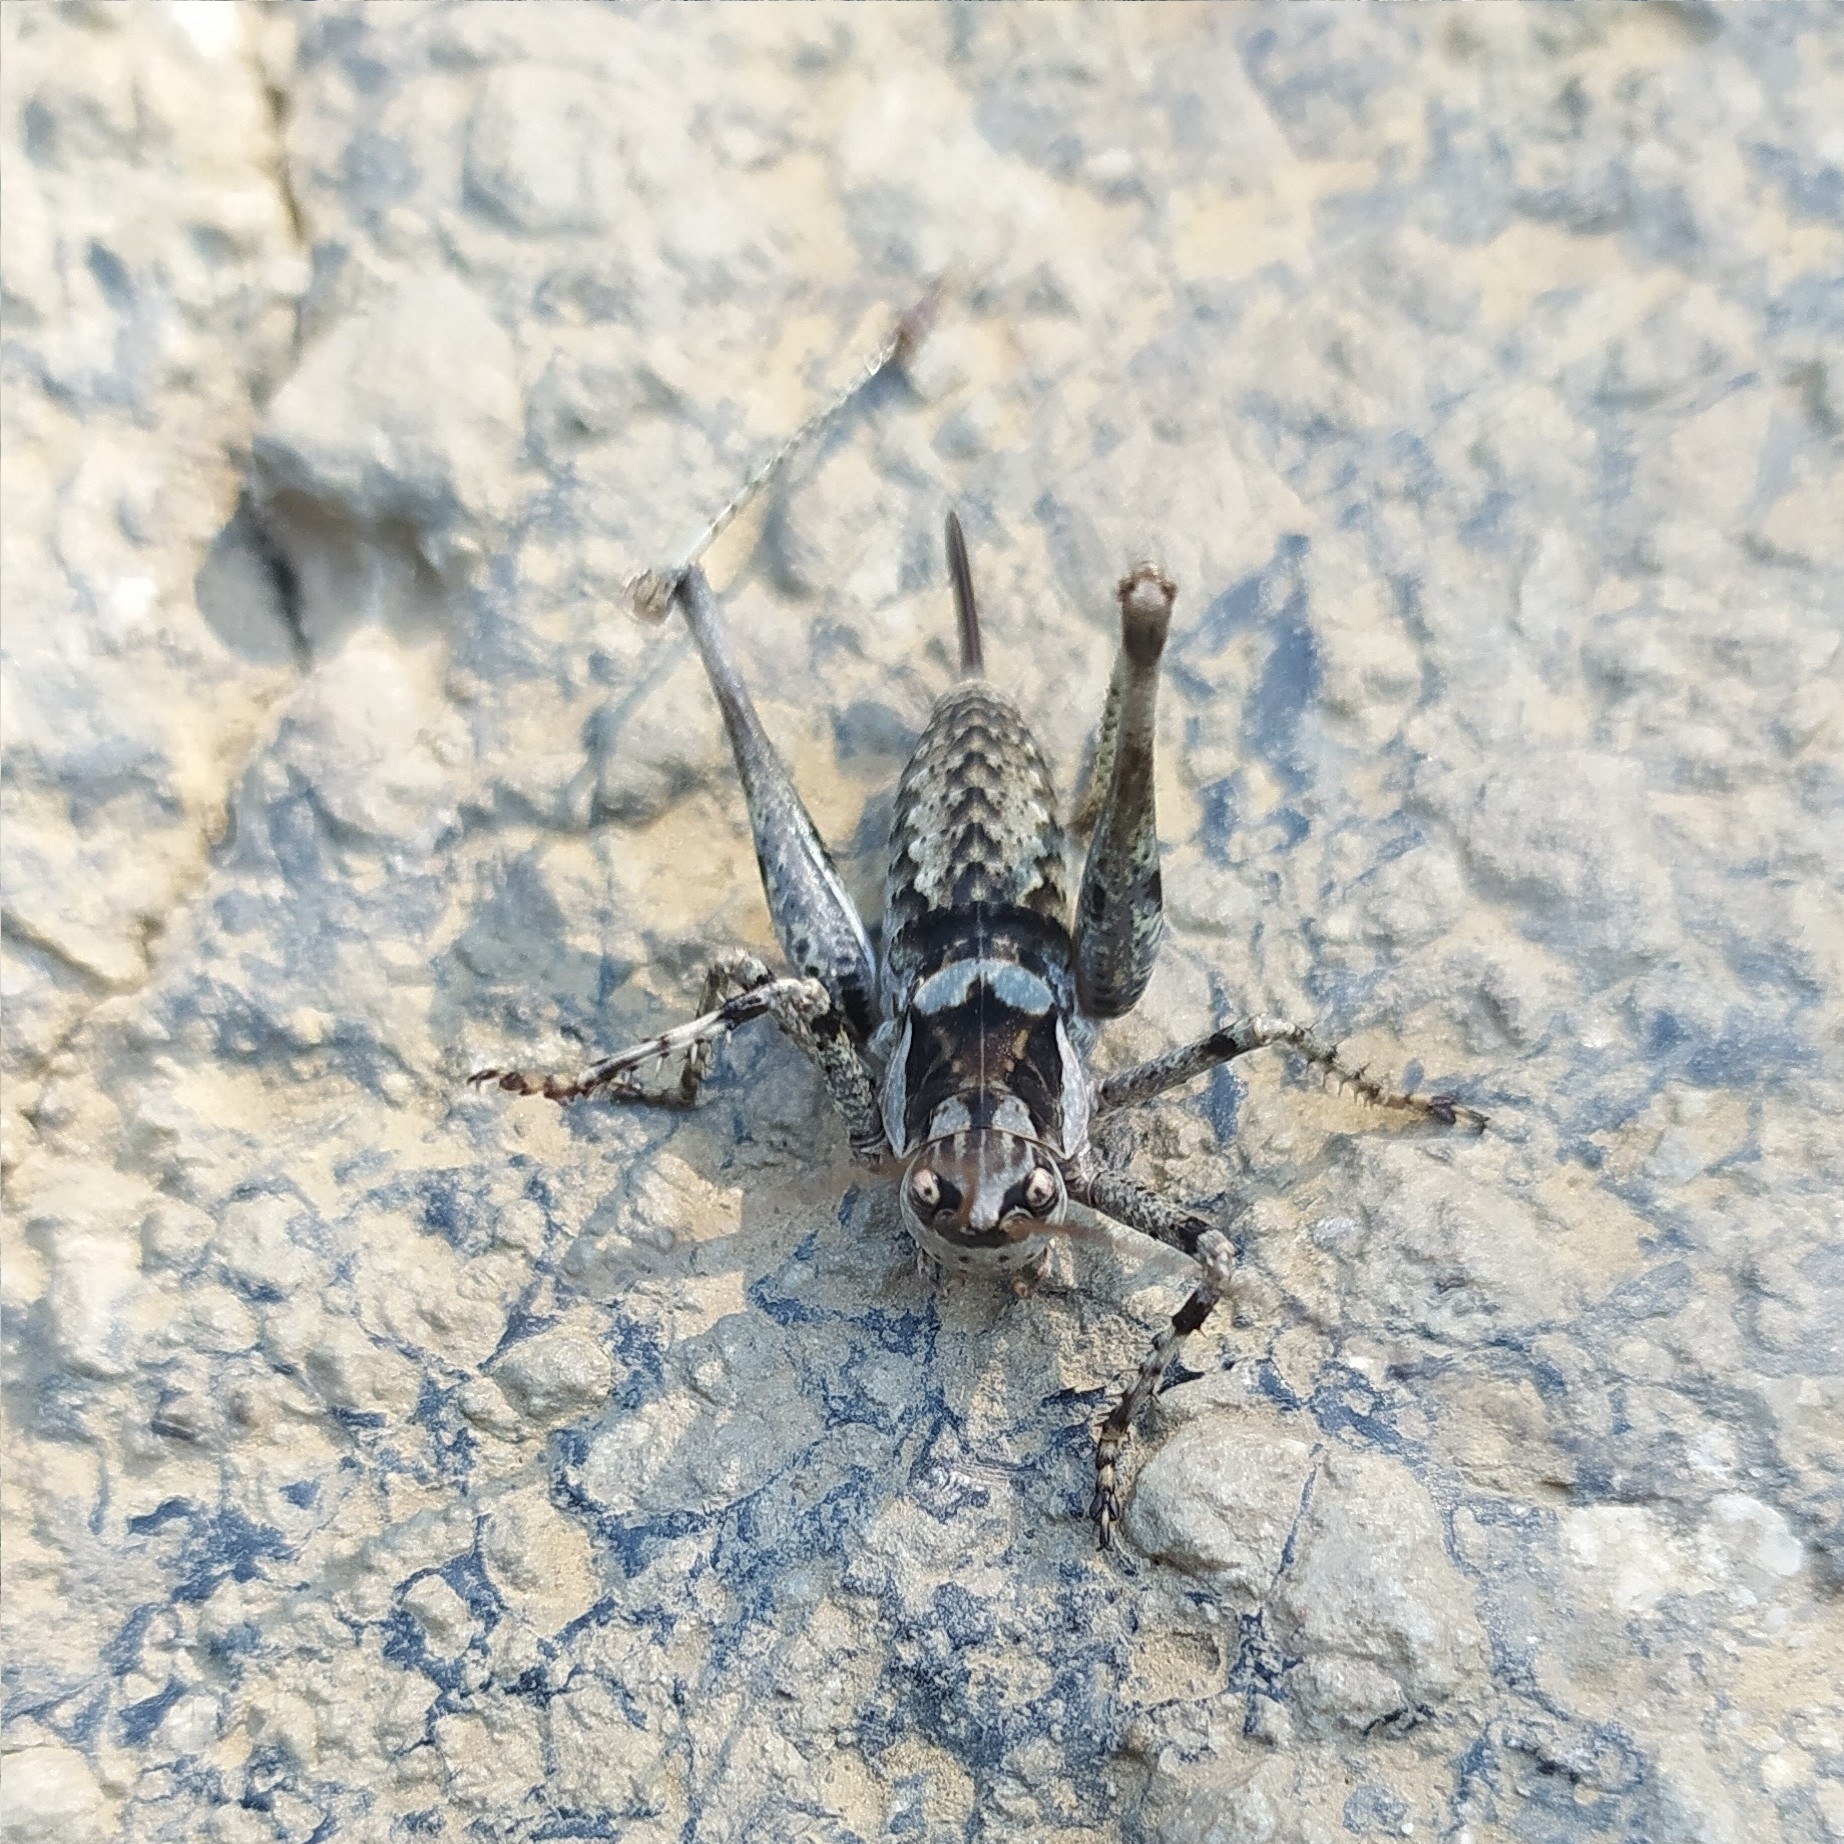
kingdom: Animalia
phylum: Arthropoda
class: Insecta
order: Orthoptera
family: Tettigoniidae
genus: Paradrymadusa
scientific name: Paradrymadusa galitzini
